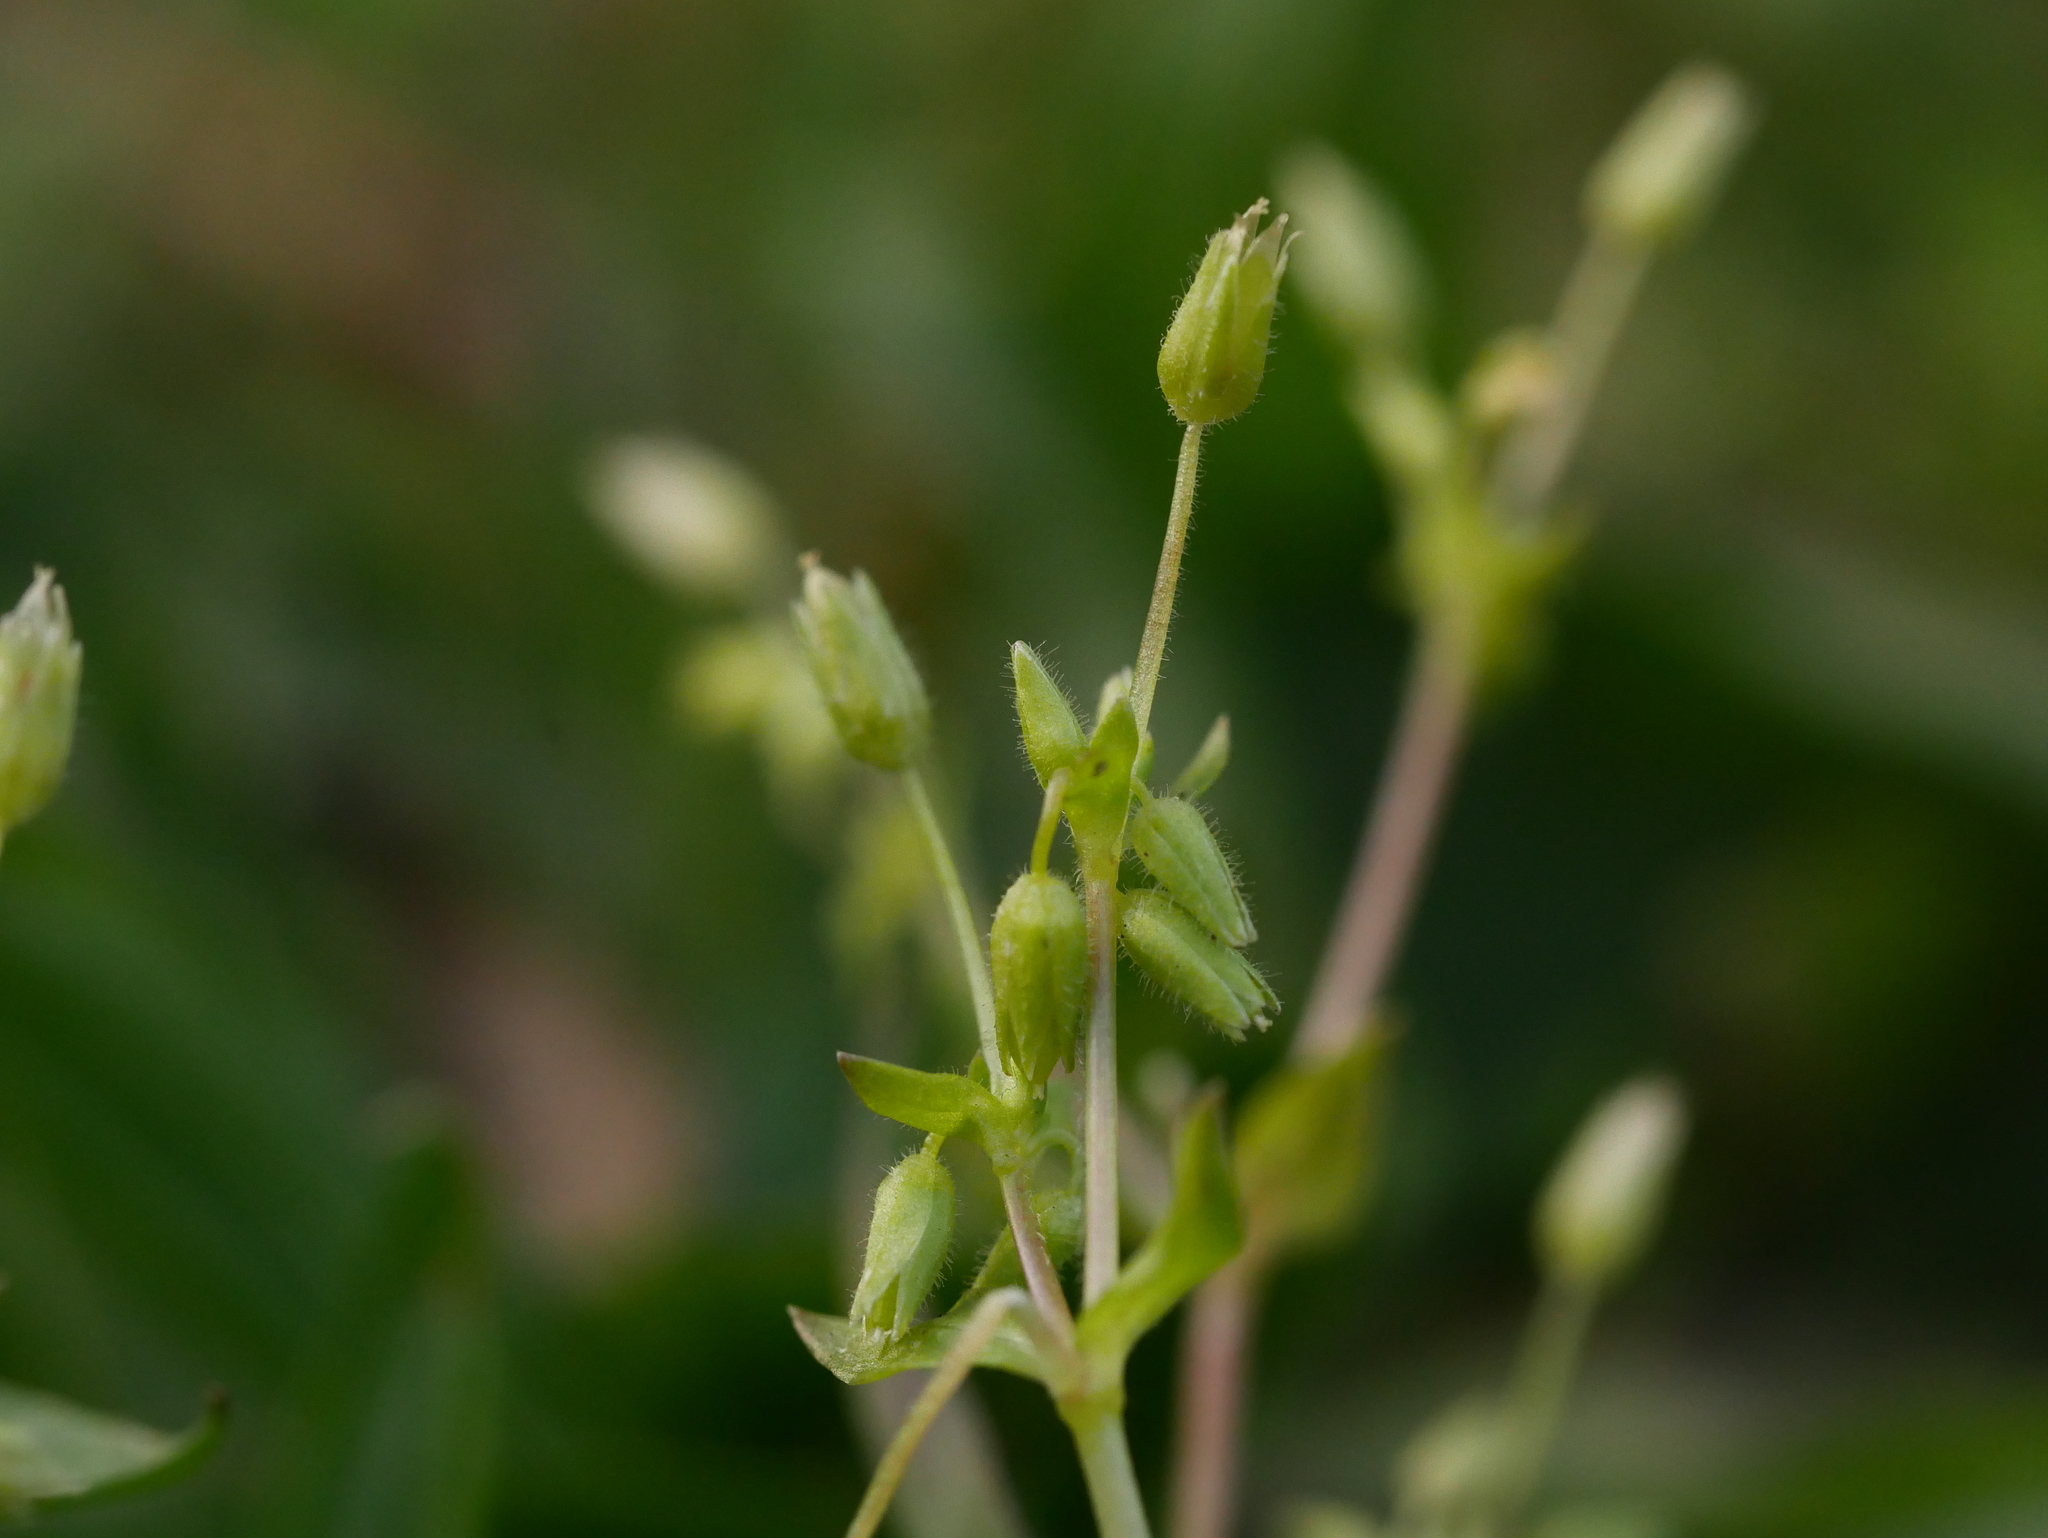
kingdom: Plantae
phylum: Tracheophyta
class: Magnoliopsida
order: Caryophyllales
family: Caryophyllaceae
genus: Stellaria
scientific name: Stellaria media
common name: Common chickweed
